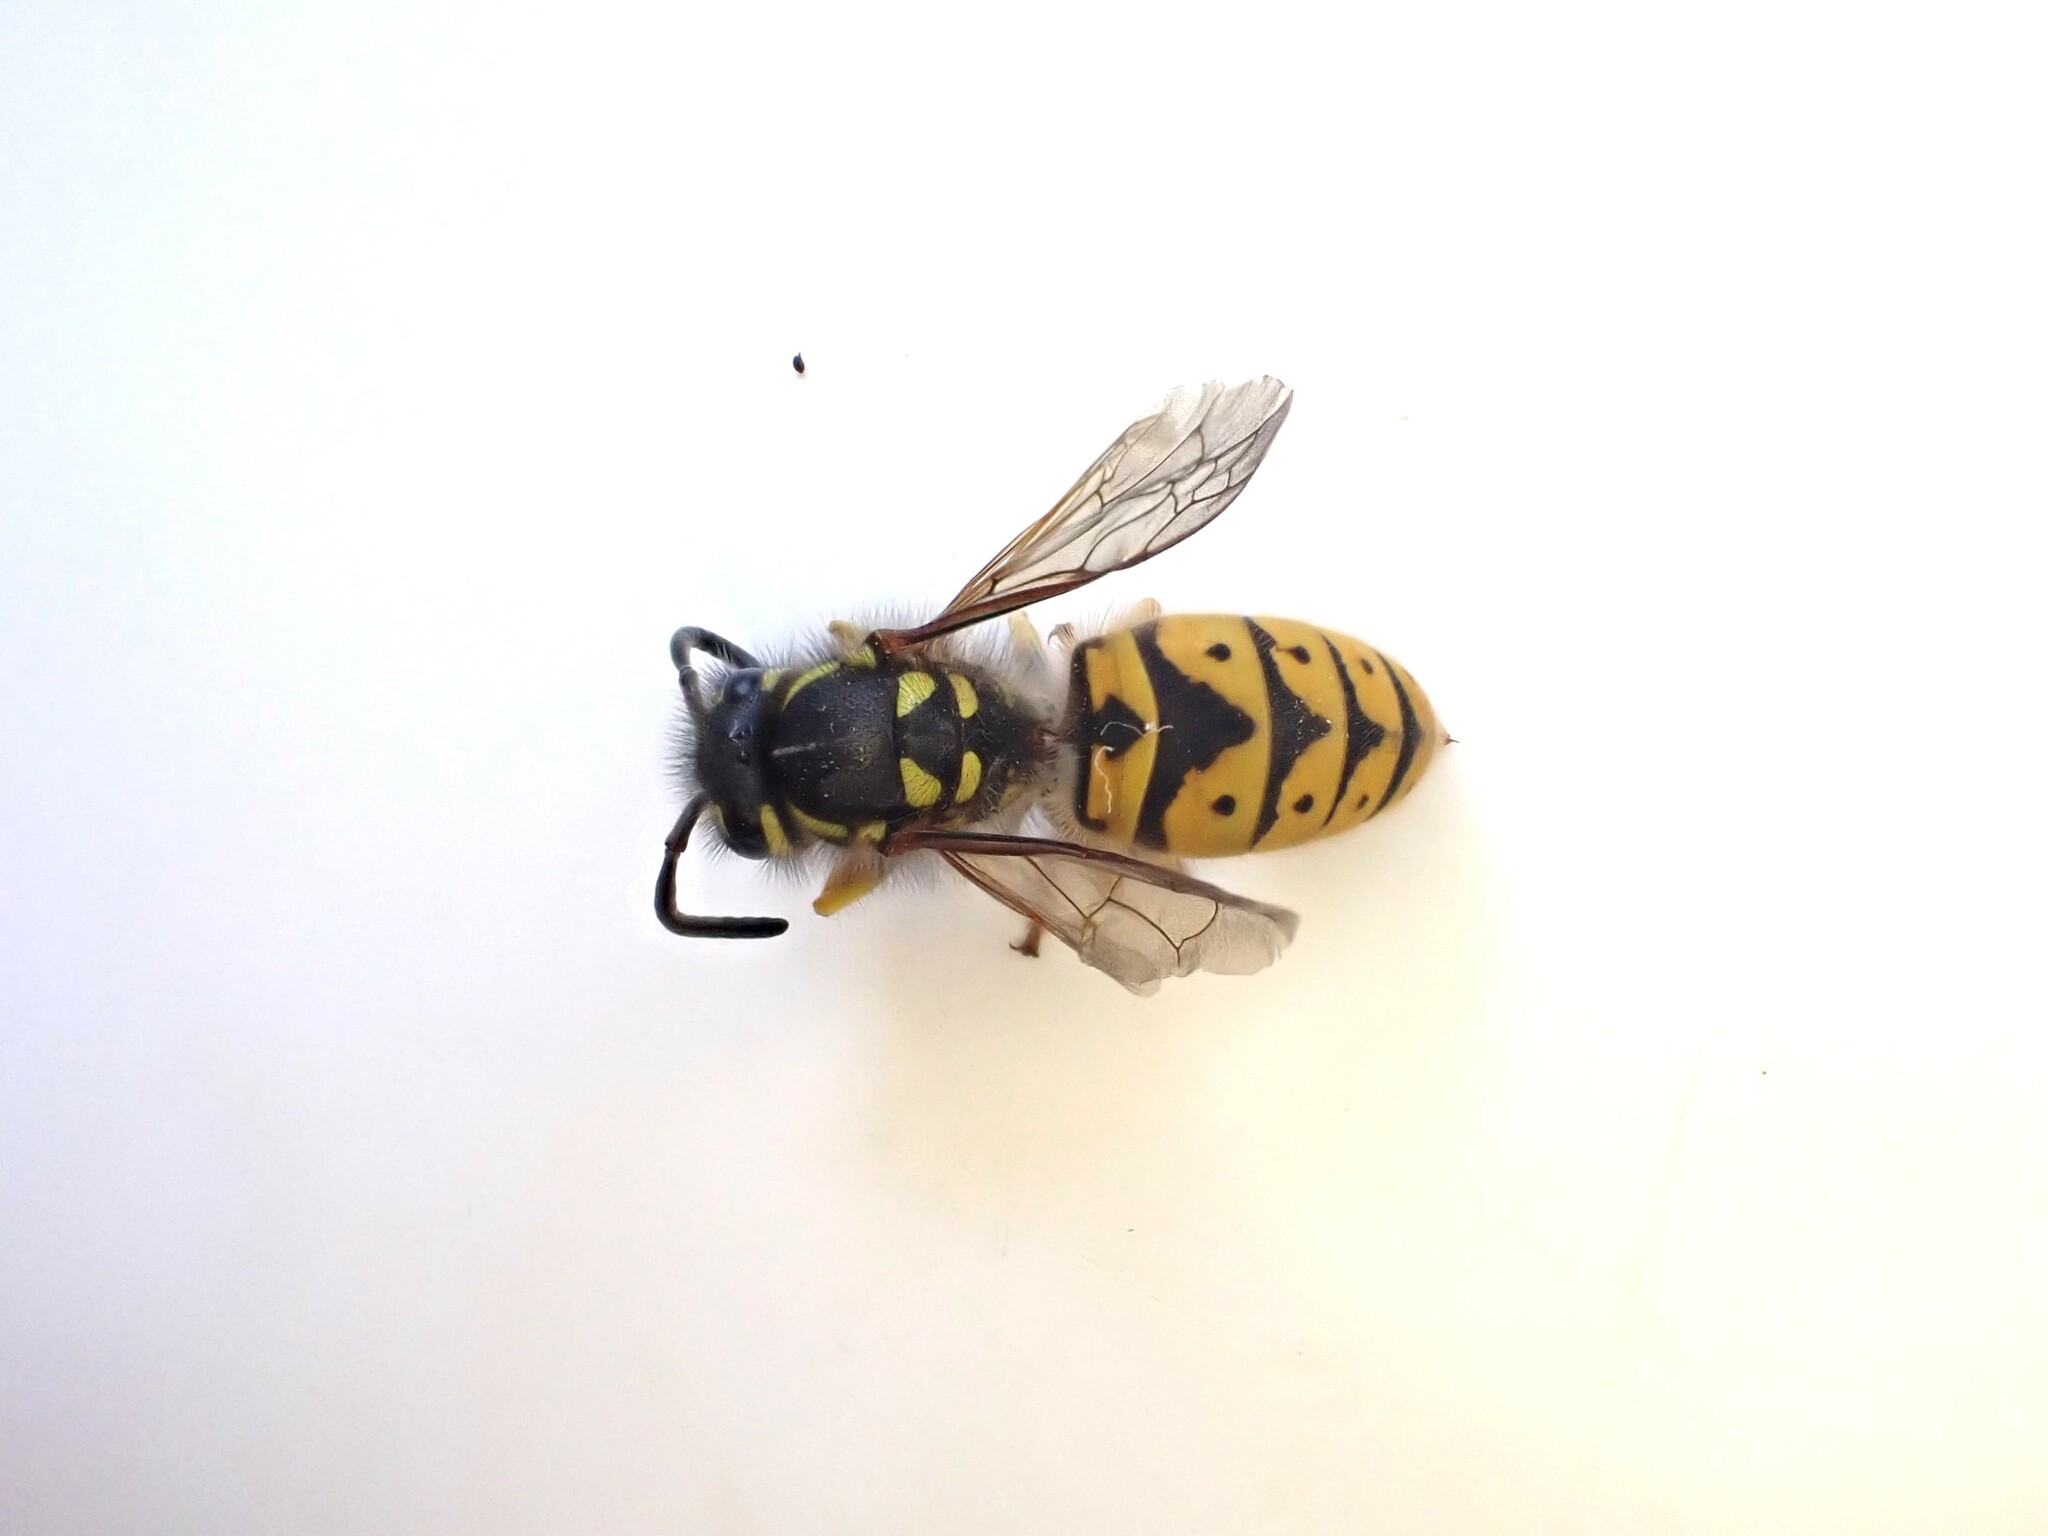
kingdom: Animalia
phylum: Arthropoda
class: Insecta
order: Hymenoptera
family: Vespidae
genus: Vespula
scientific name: Vespula germanica
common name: German wasp
